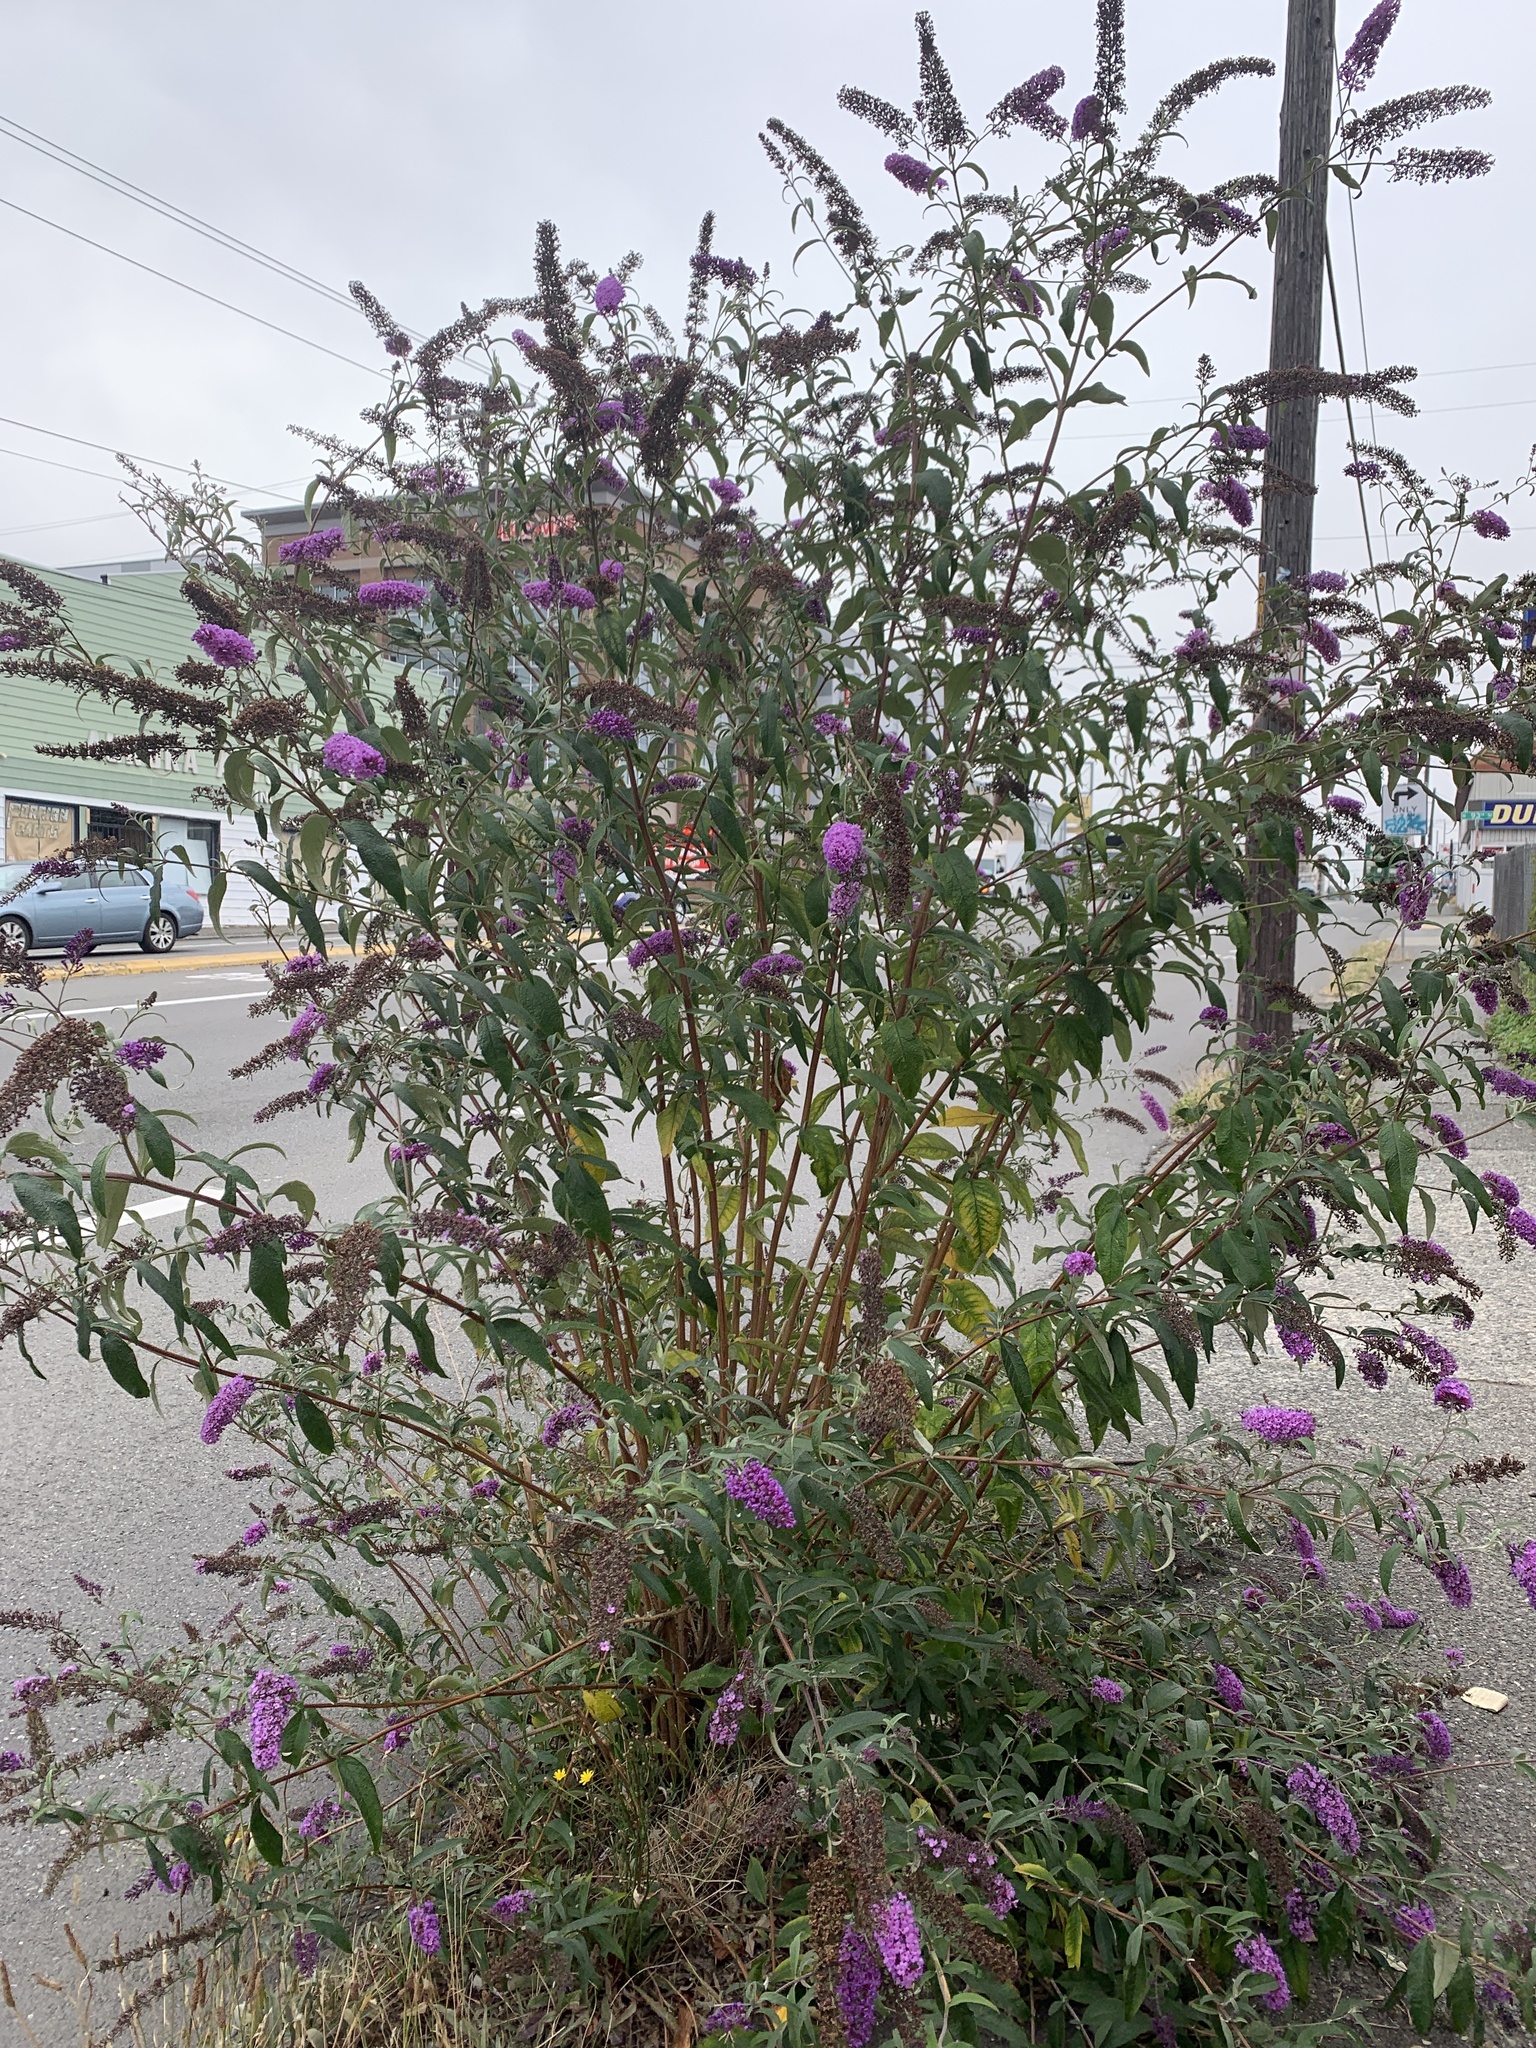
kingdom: Plantae
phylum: Tracheophyta
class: Magnoliopsida
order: Lamiales
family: Scrophulariaceae
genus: Buddleja
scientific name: Buddleja davidii
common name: Butterfly-bush
